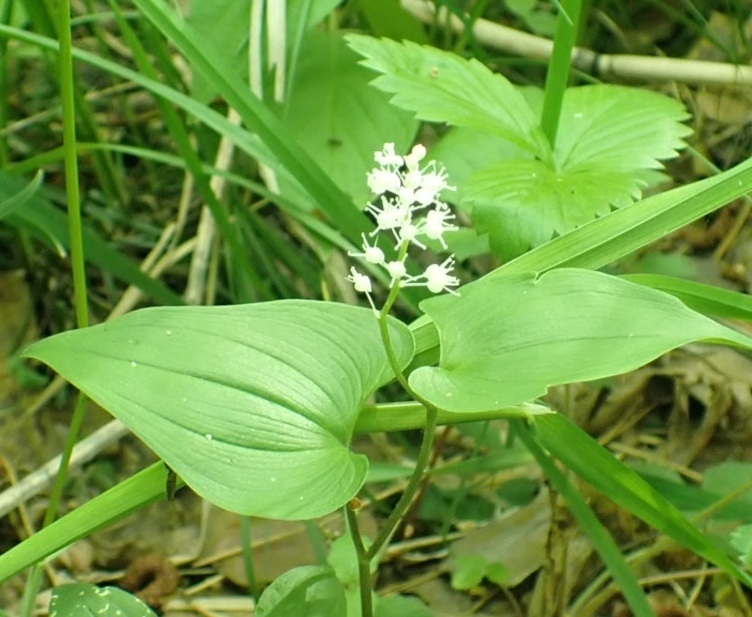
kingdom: Plantae
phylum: Tracheophyta
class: Liliopsida
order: Asparagales
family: Asparagaceae
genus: Maianthemum
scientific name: Maianthemum bifolium
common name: May lily
